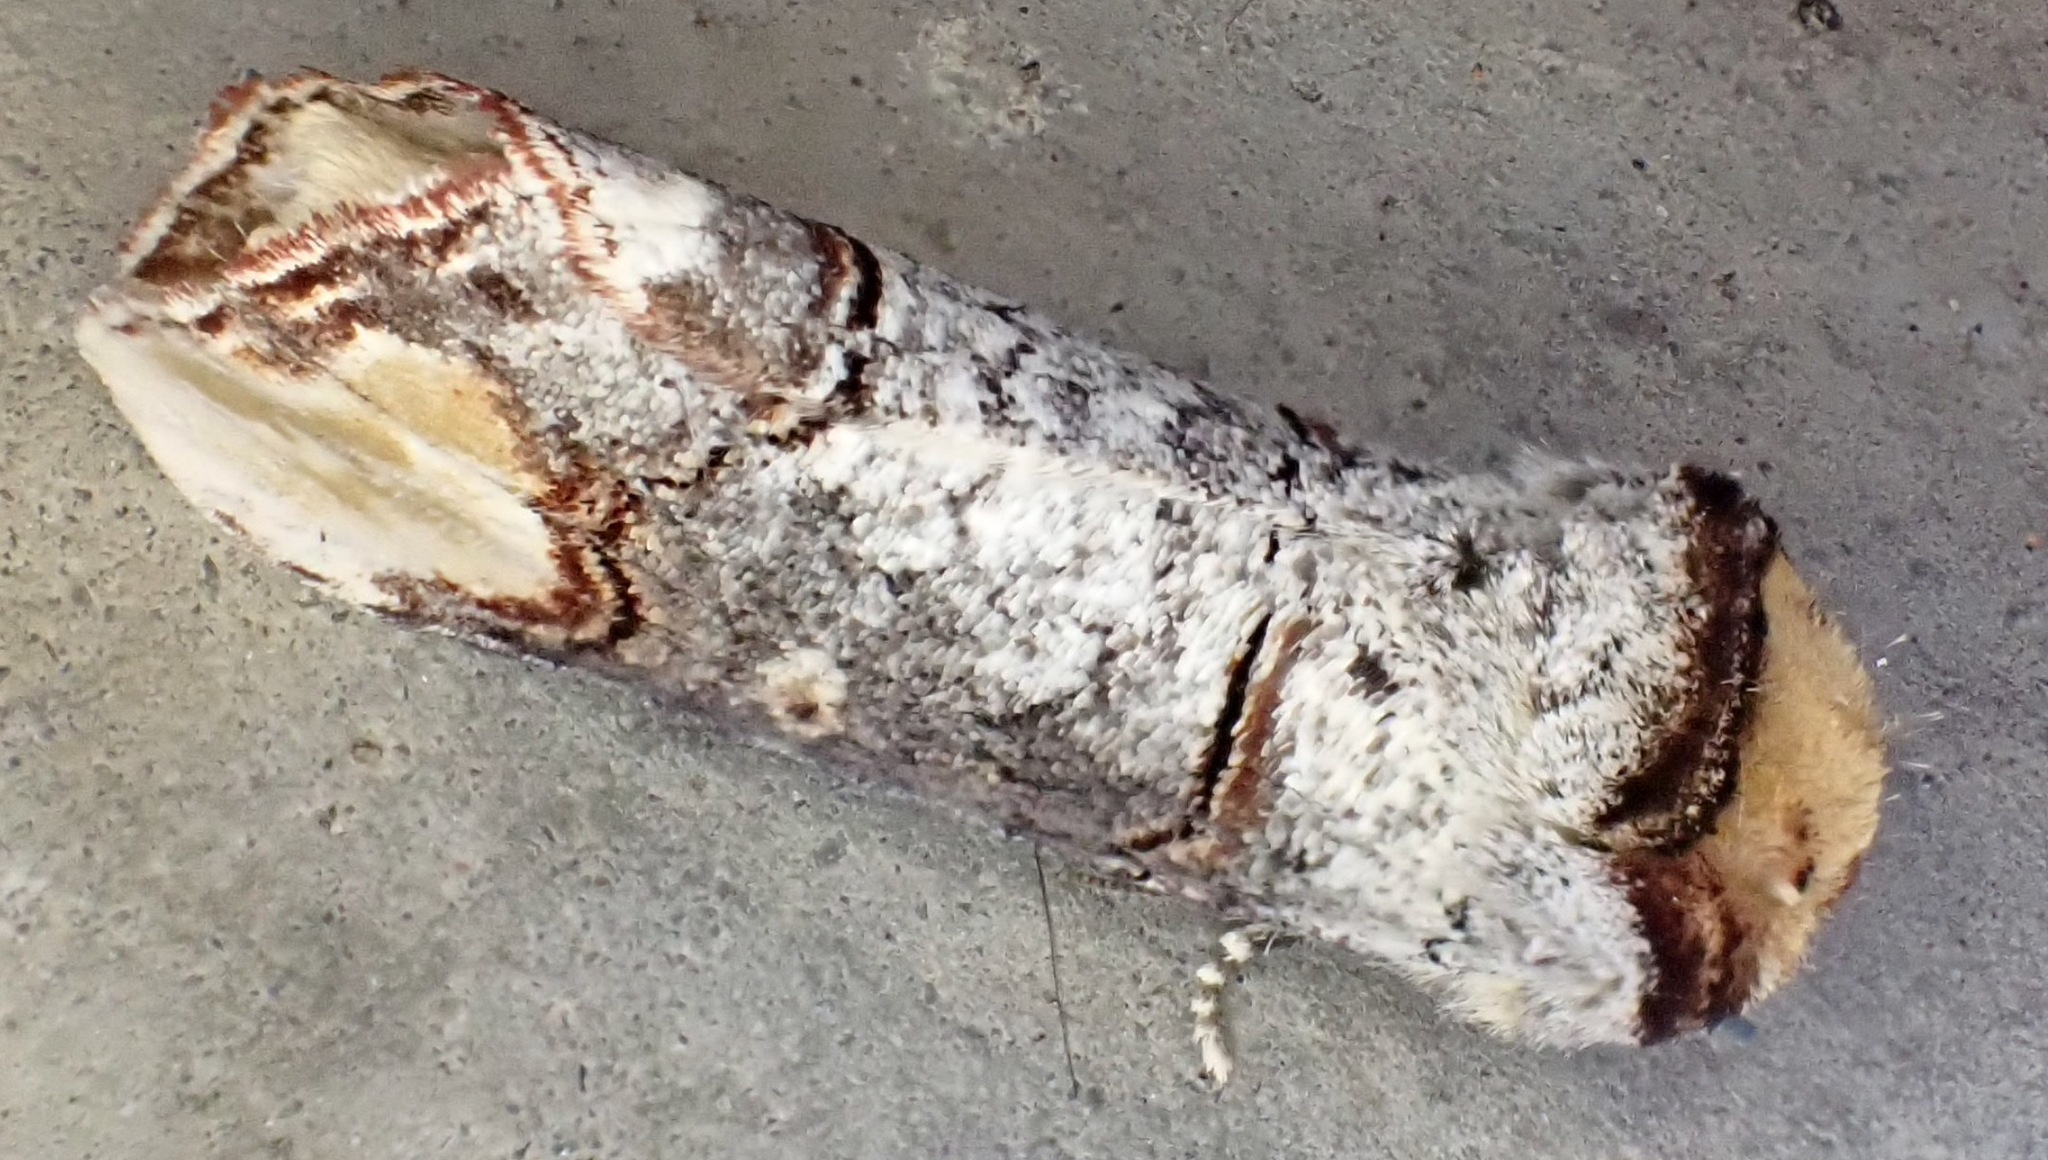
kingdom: Animalia
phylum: Arthropoda
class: Insecta
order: Lepidoptera
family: Notodontidae
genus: Phalera
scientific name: Phalera bucephala
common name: Buff-tip
